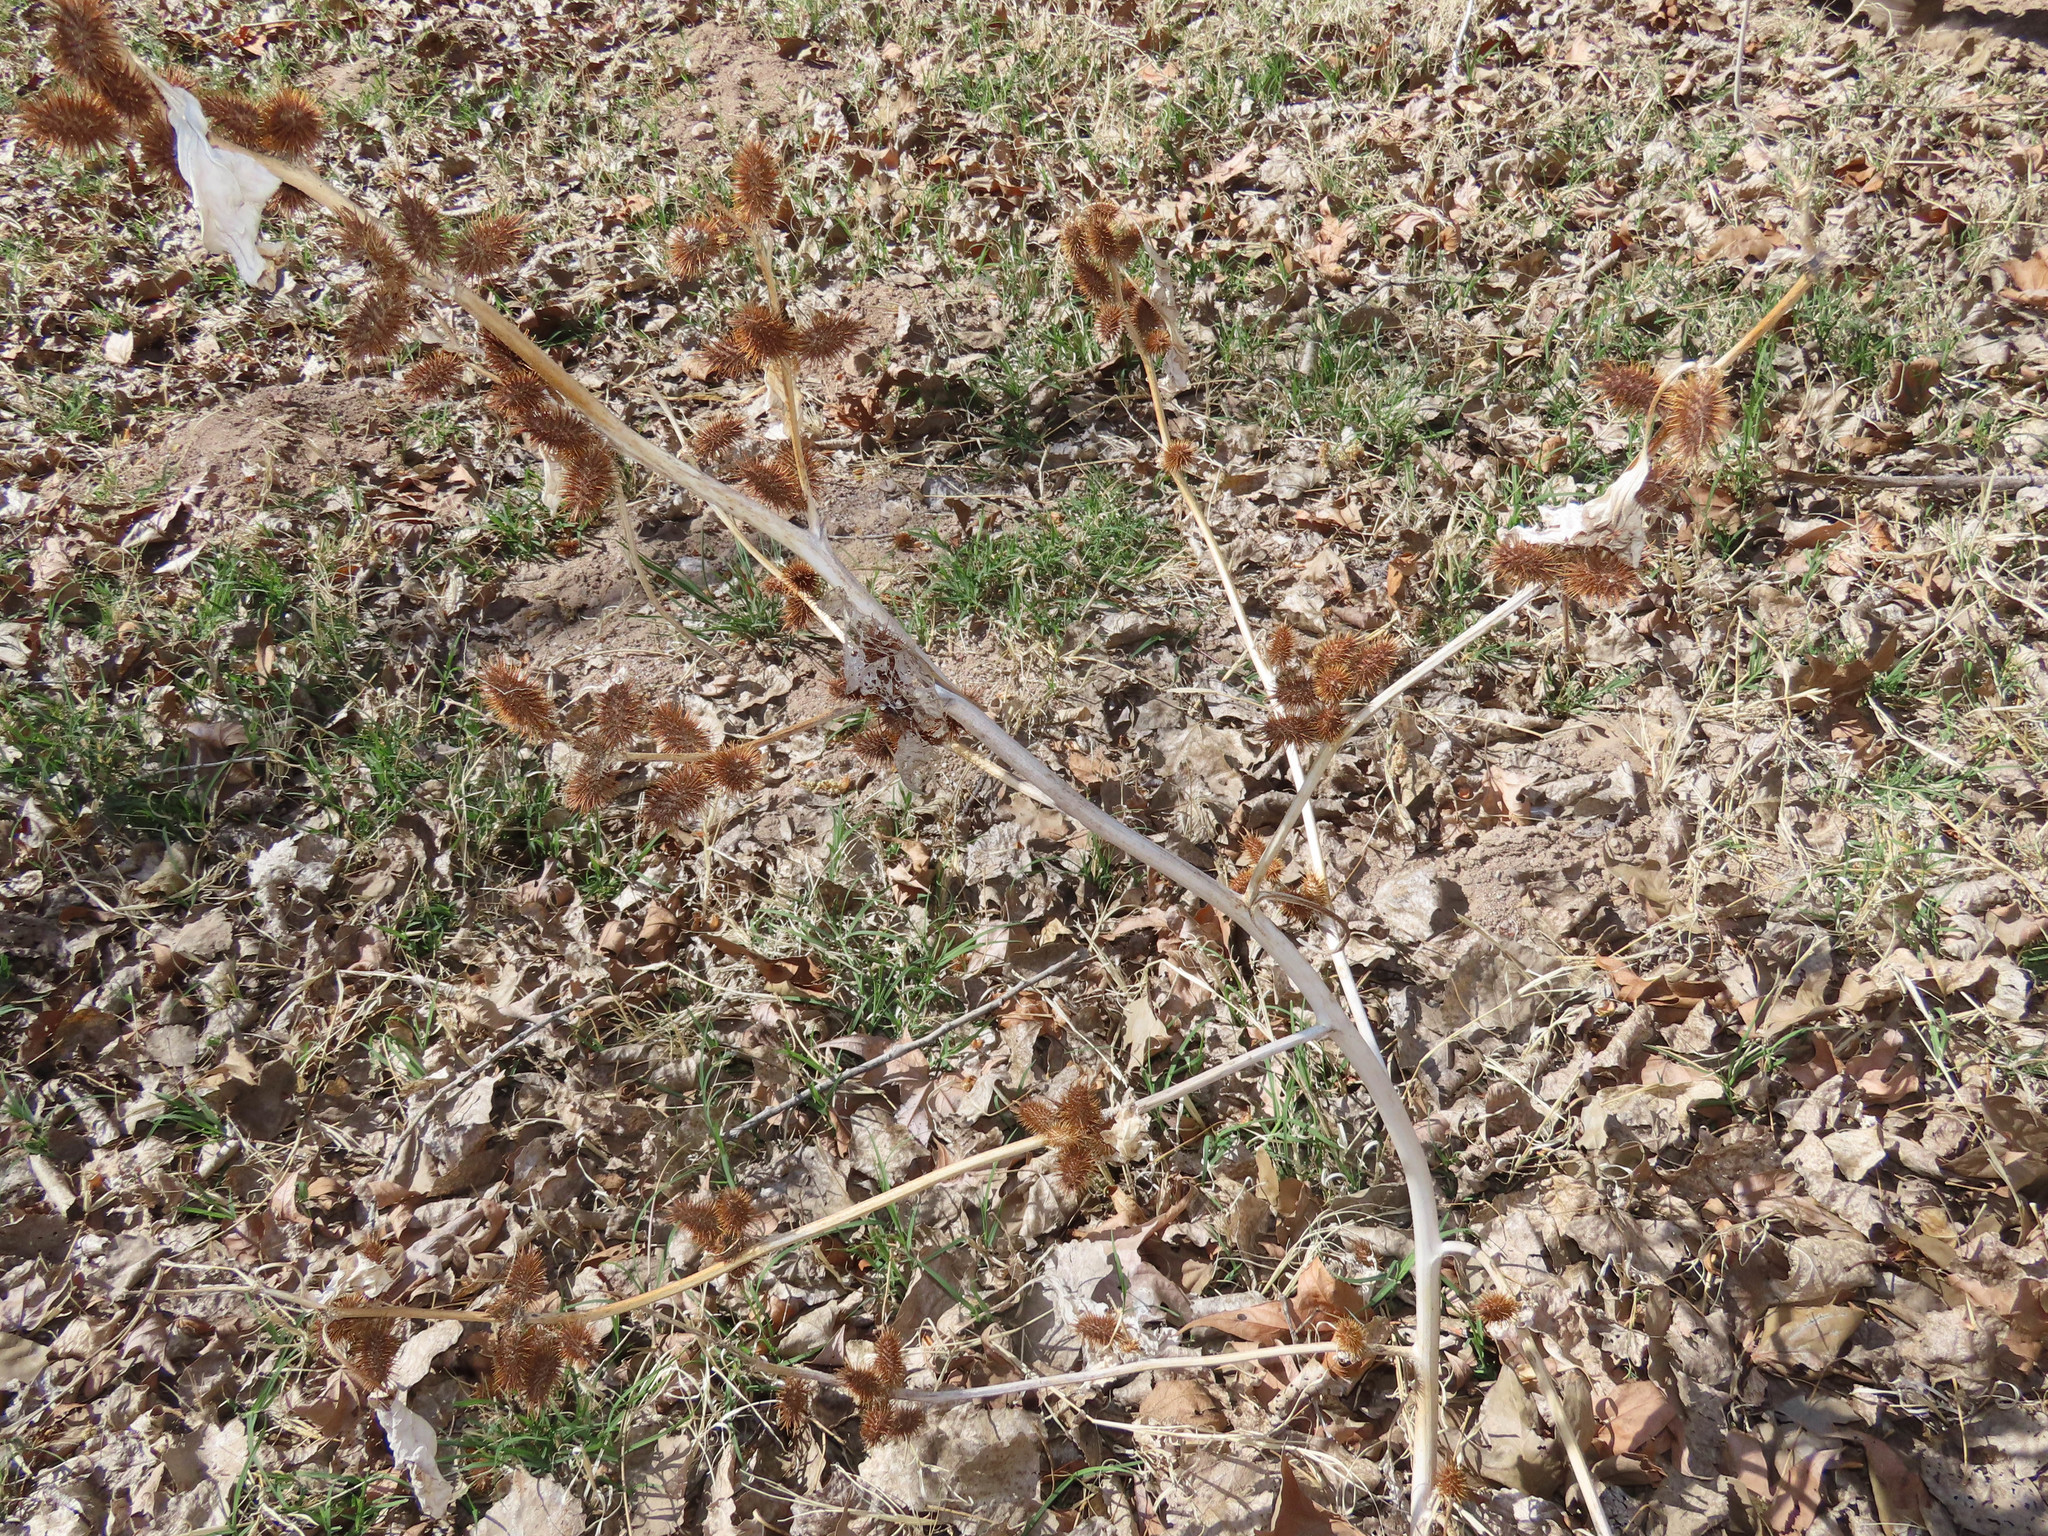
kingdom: Plantae
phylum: Tracheophyta
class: Magnoliopsida
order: Asterales
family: Asteraceae
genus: Xanthium
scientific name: Xanthium strumarium
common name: Rough cocklebur
